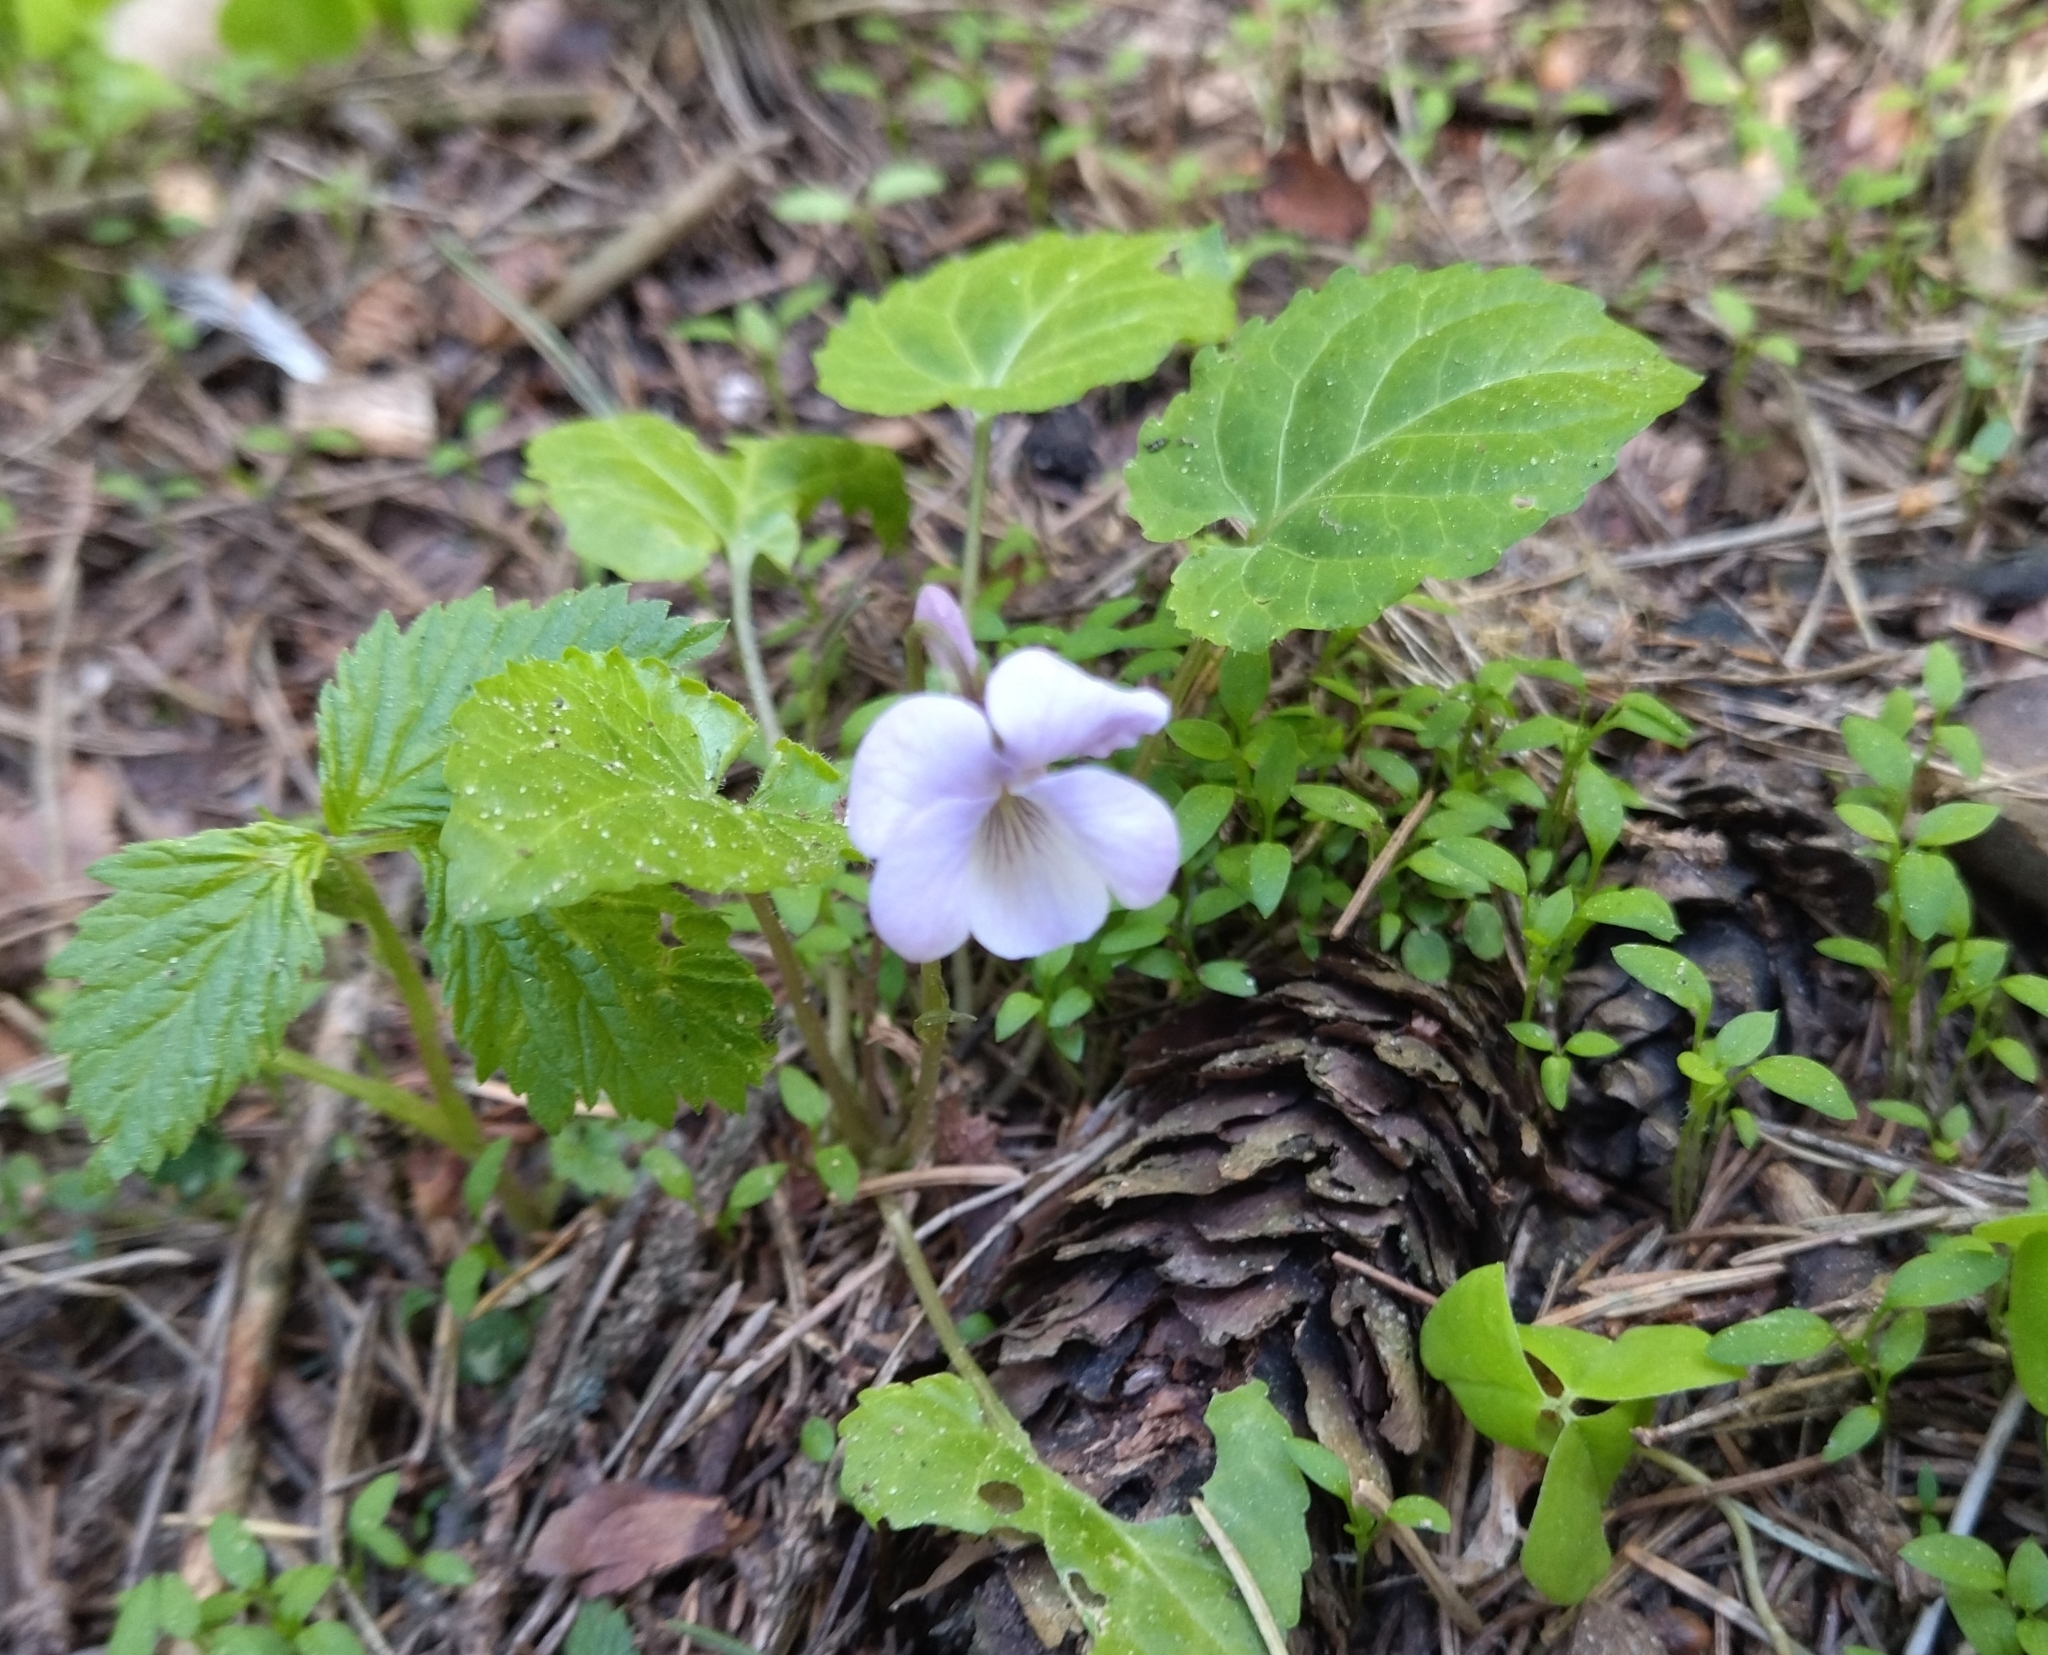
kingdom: Plantae
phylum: Tracheophyta
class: Magnoliopsida
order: Malpighiales
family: Violaceae
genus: Viola
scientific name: Viola selkirkii
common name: Selkirk's violet
